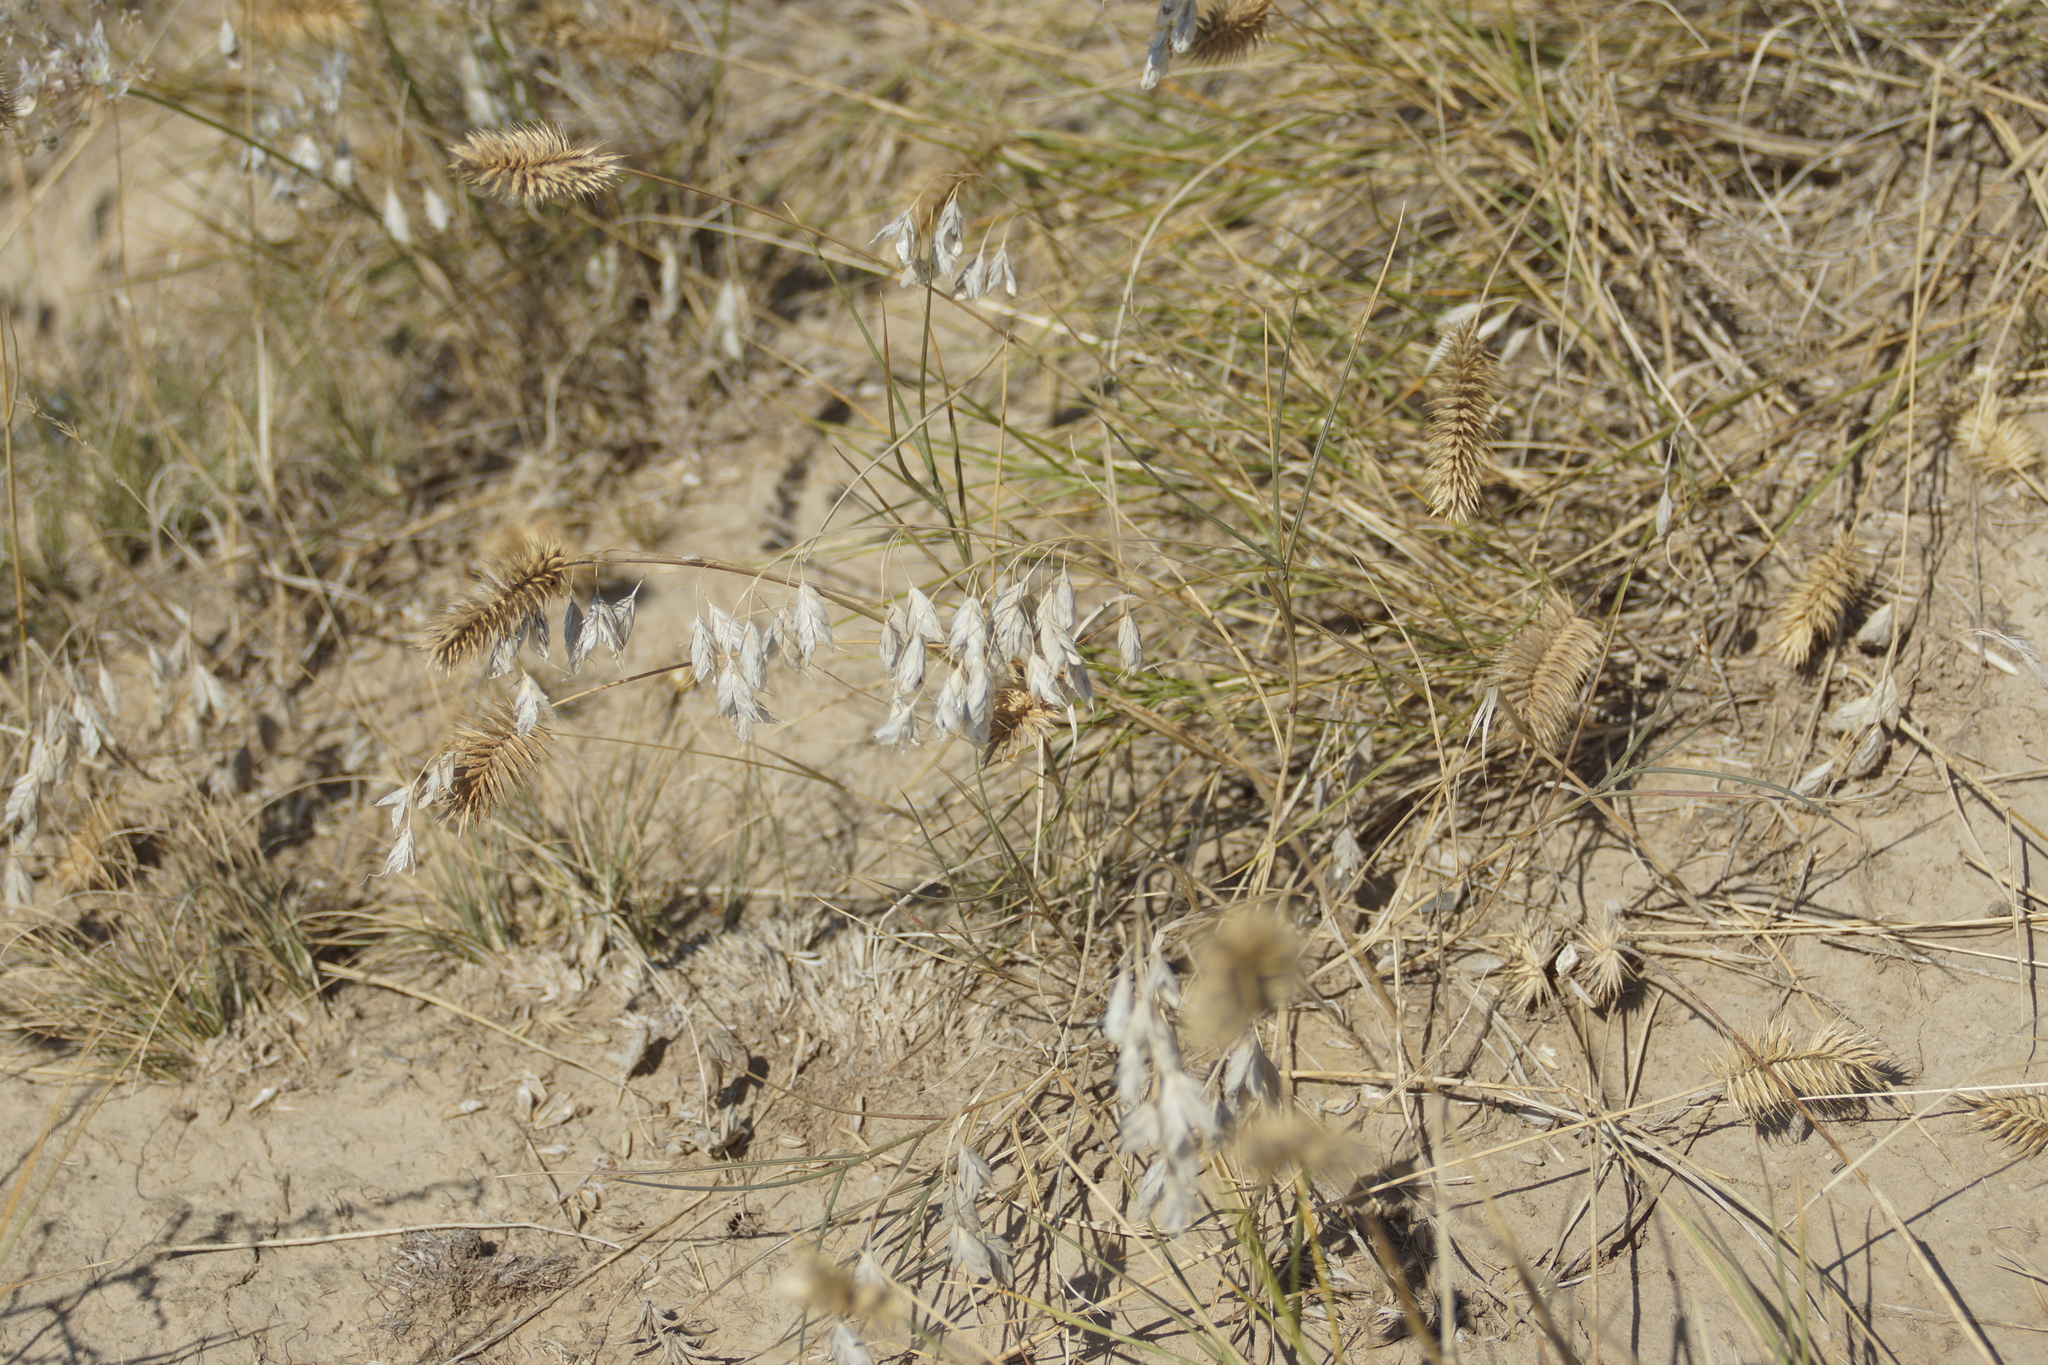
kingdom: Plantae
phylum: Tracheophyta
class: Liliopsida
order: Poales
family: Poaceae
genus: Bromus
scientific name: Bromus squarrosus
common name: Corn brome
